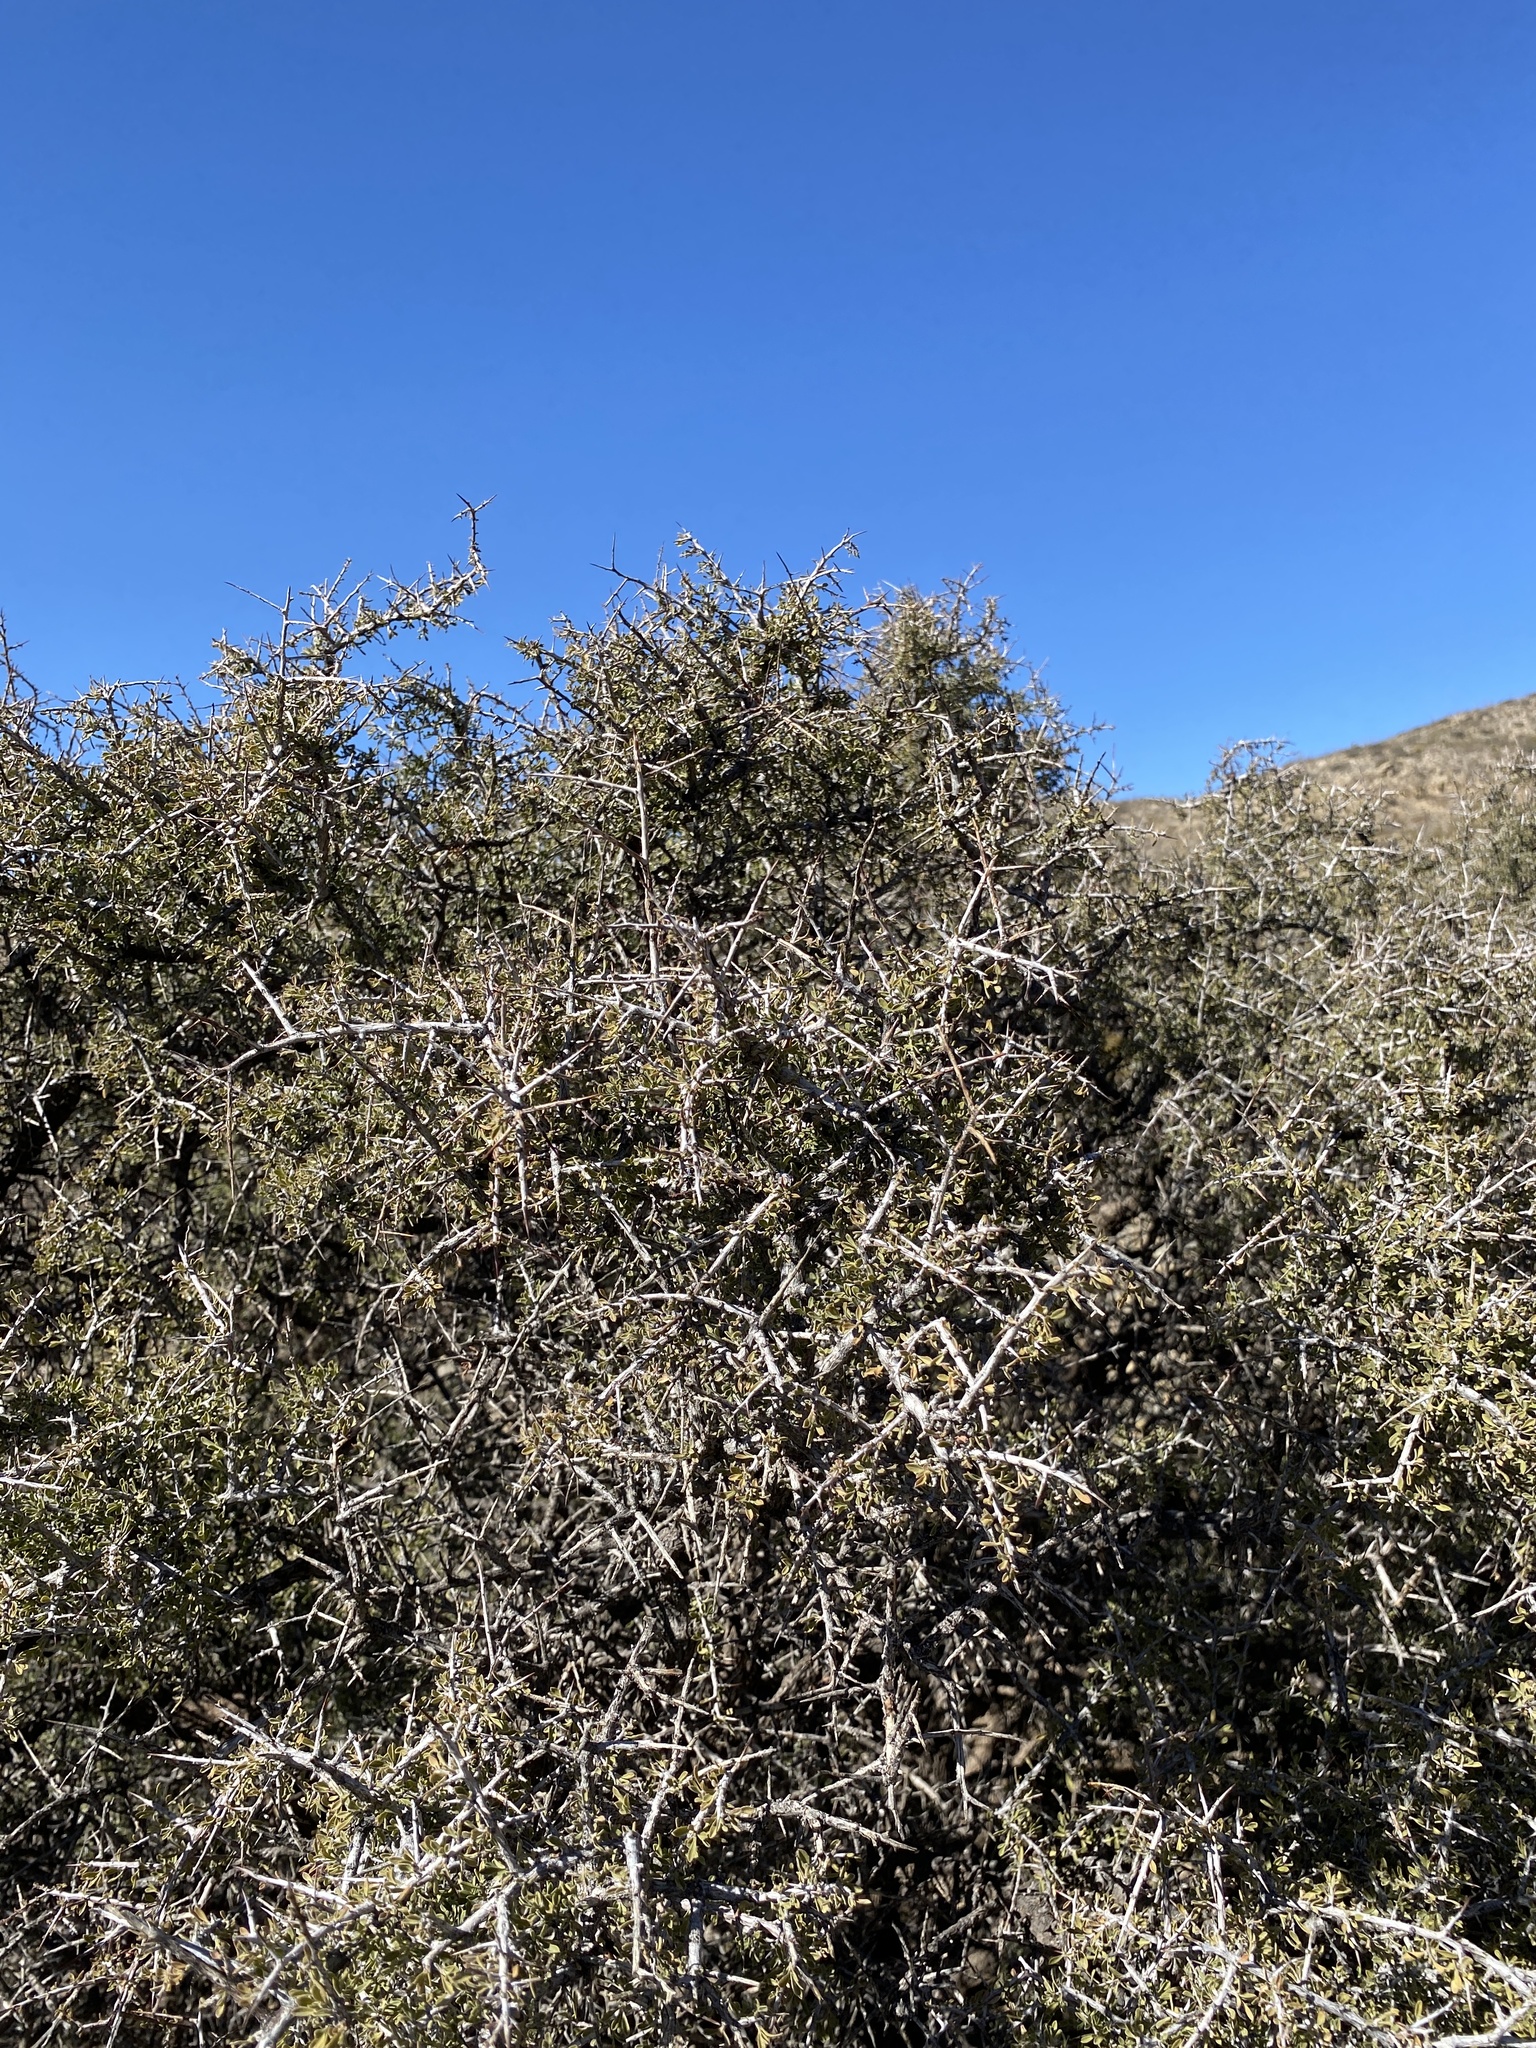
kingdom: Plantae
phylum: Tracheophyta
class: Magnoliopsida
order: Rosales
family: Rhamnaceae
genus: Condalia
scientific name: Condalia warnockii
